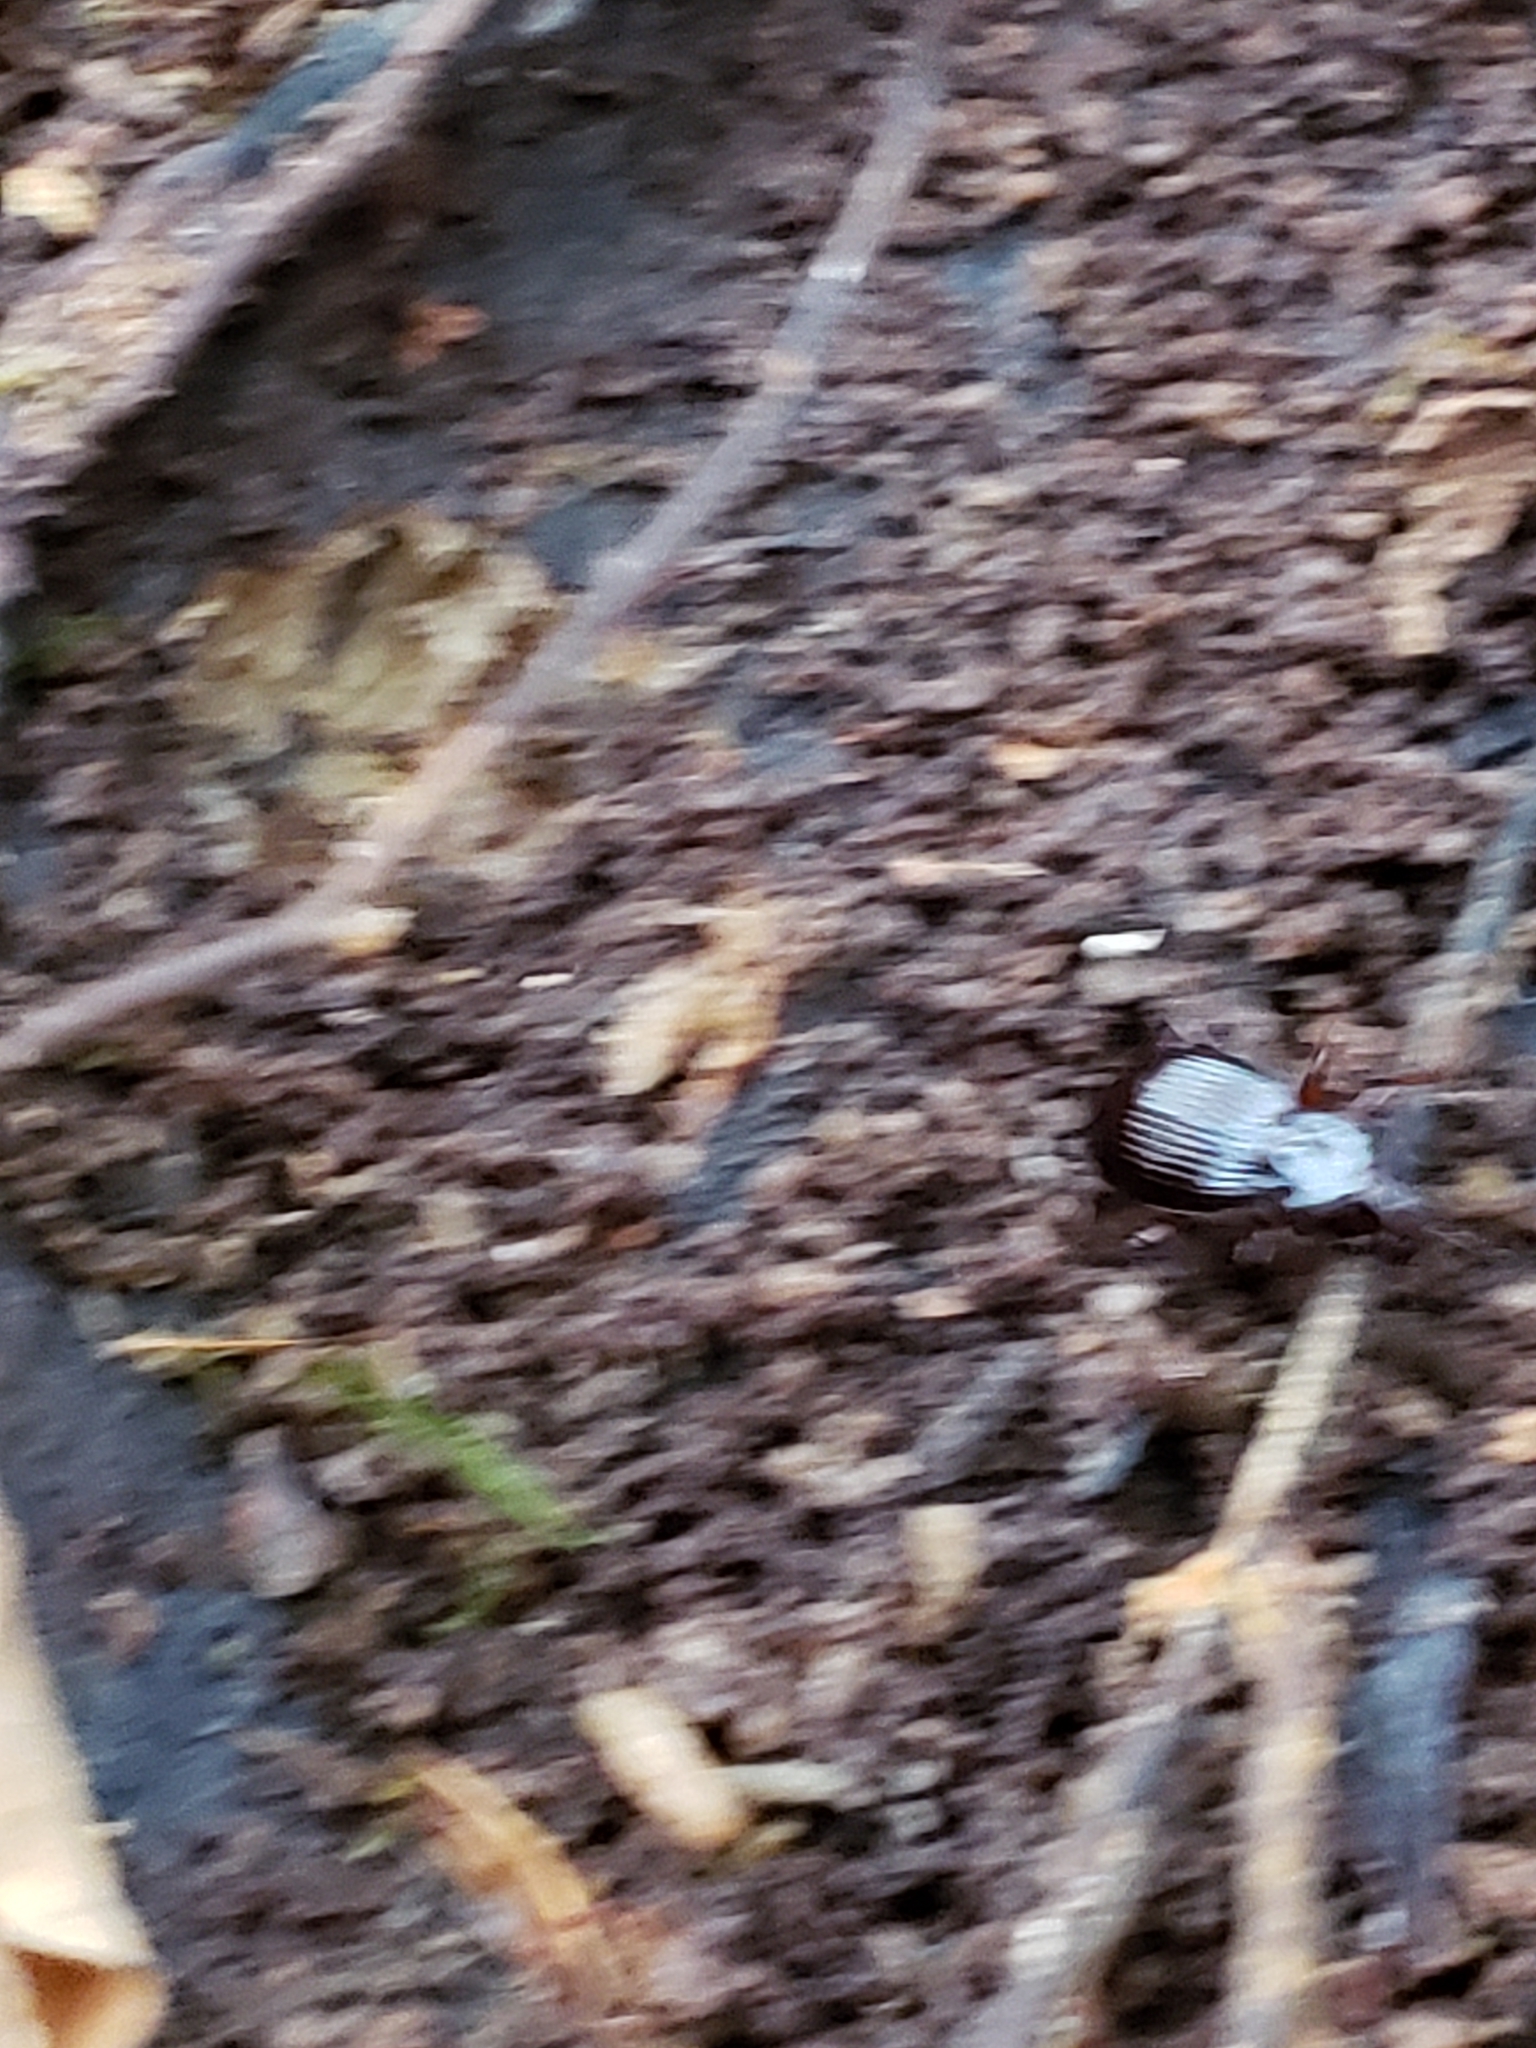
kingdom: Animalia
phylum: Arthropoda
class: Insecta
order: Coleoptera
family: Carabidae
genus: Gastrellarius
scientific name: Gastrellarius honestus
